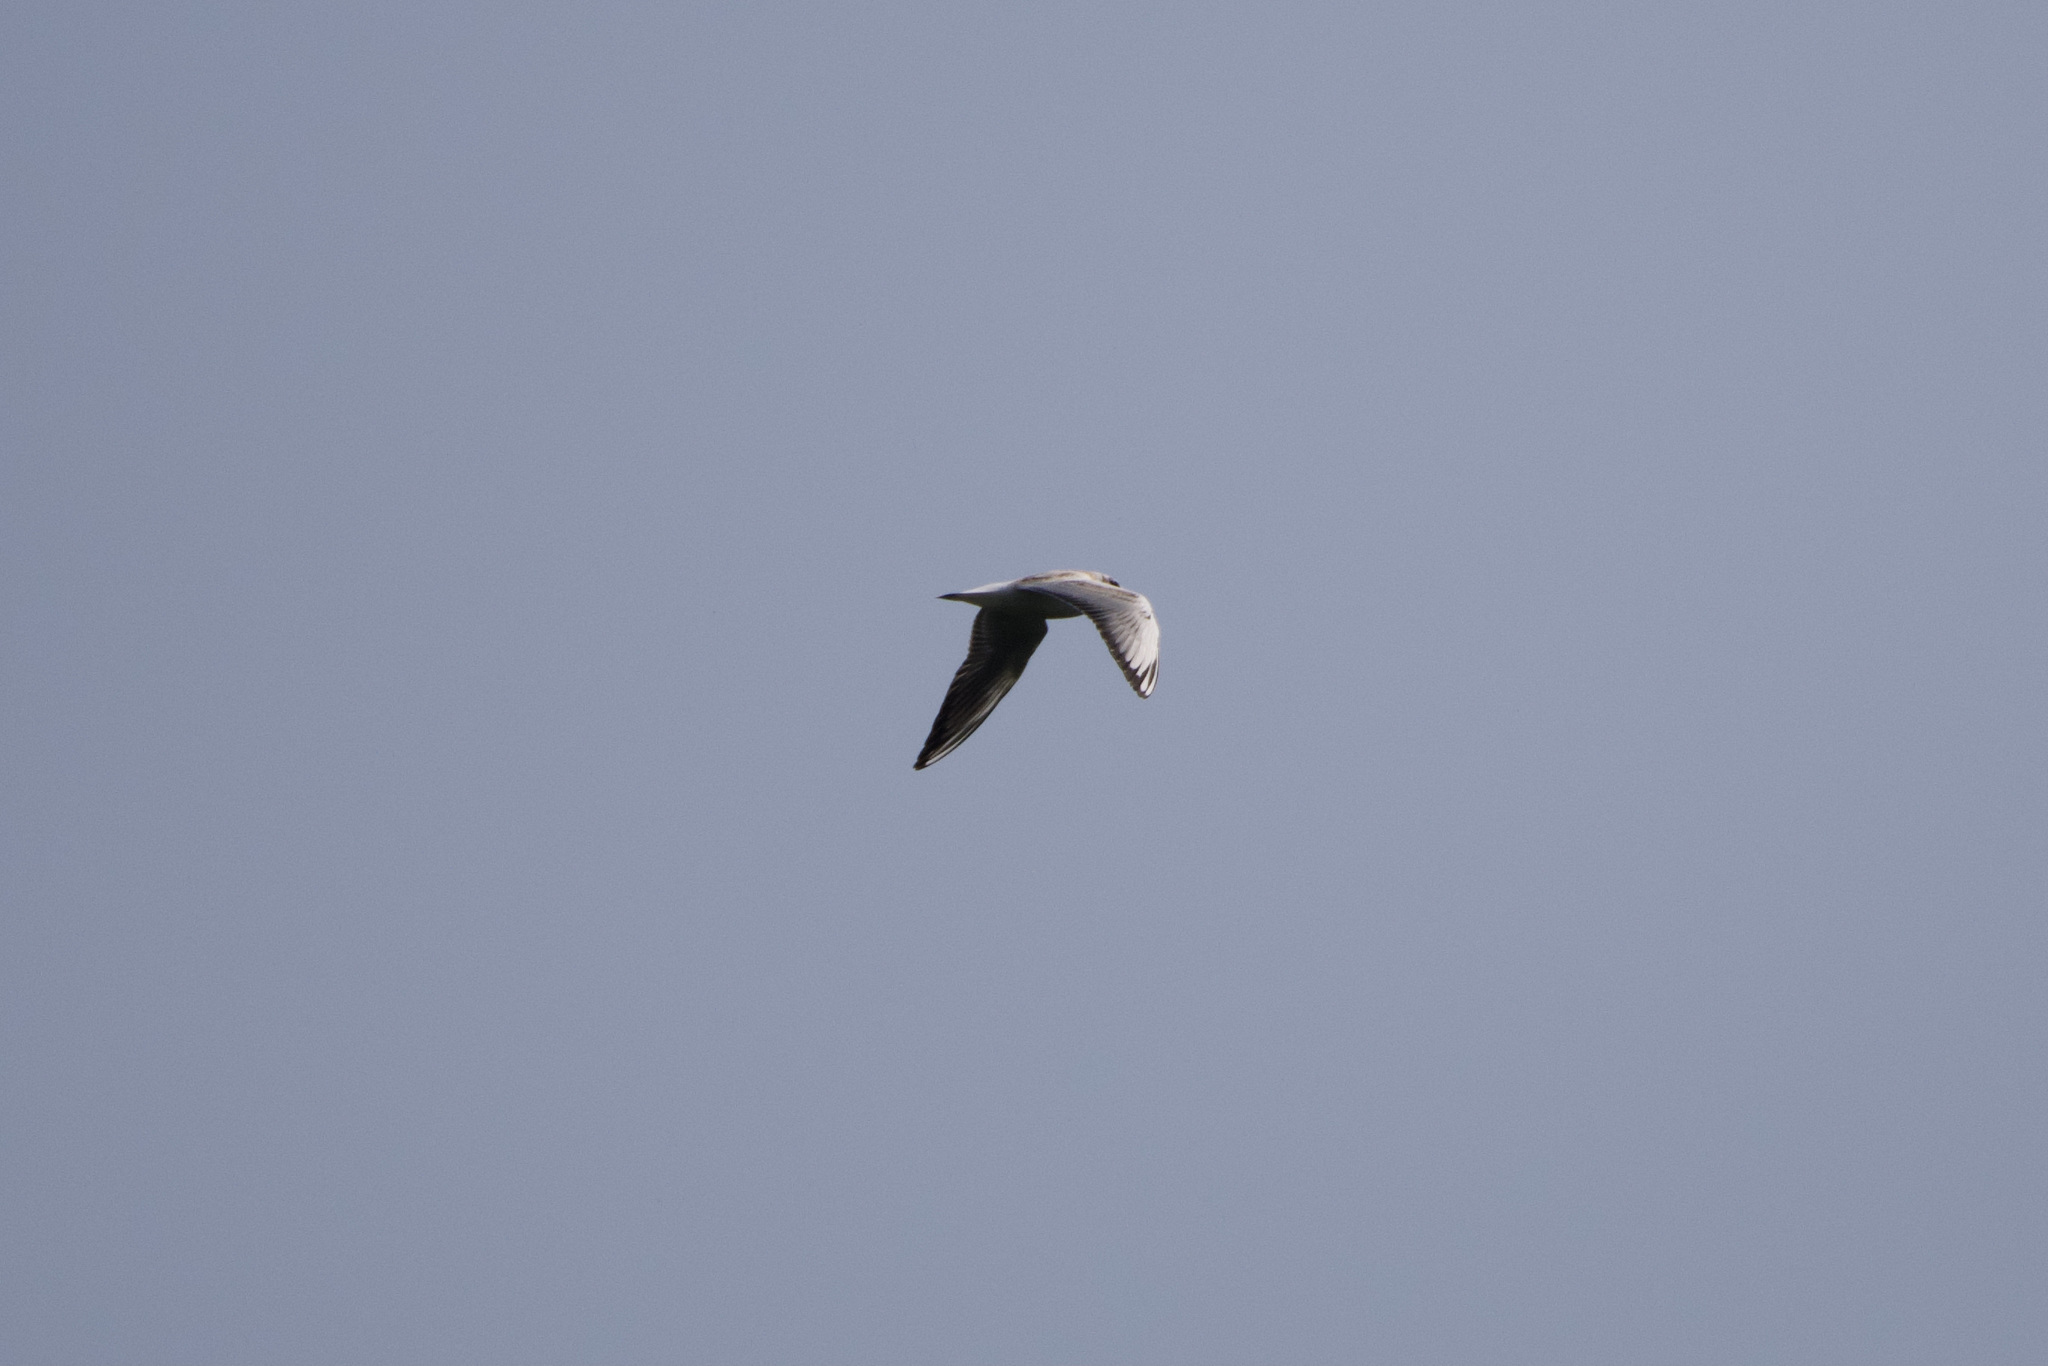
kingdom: Animalia
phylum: Chordata
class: Aves
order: Charadriiformes
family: Laridae
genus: Chroicocephalus
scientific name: Chroicocephalus ridibundus
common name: Black-headed gull
